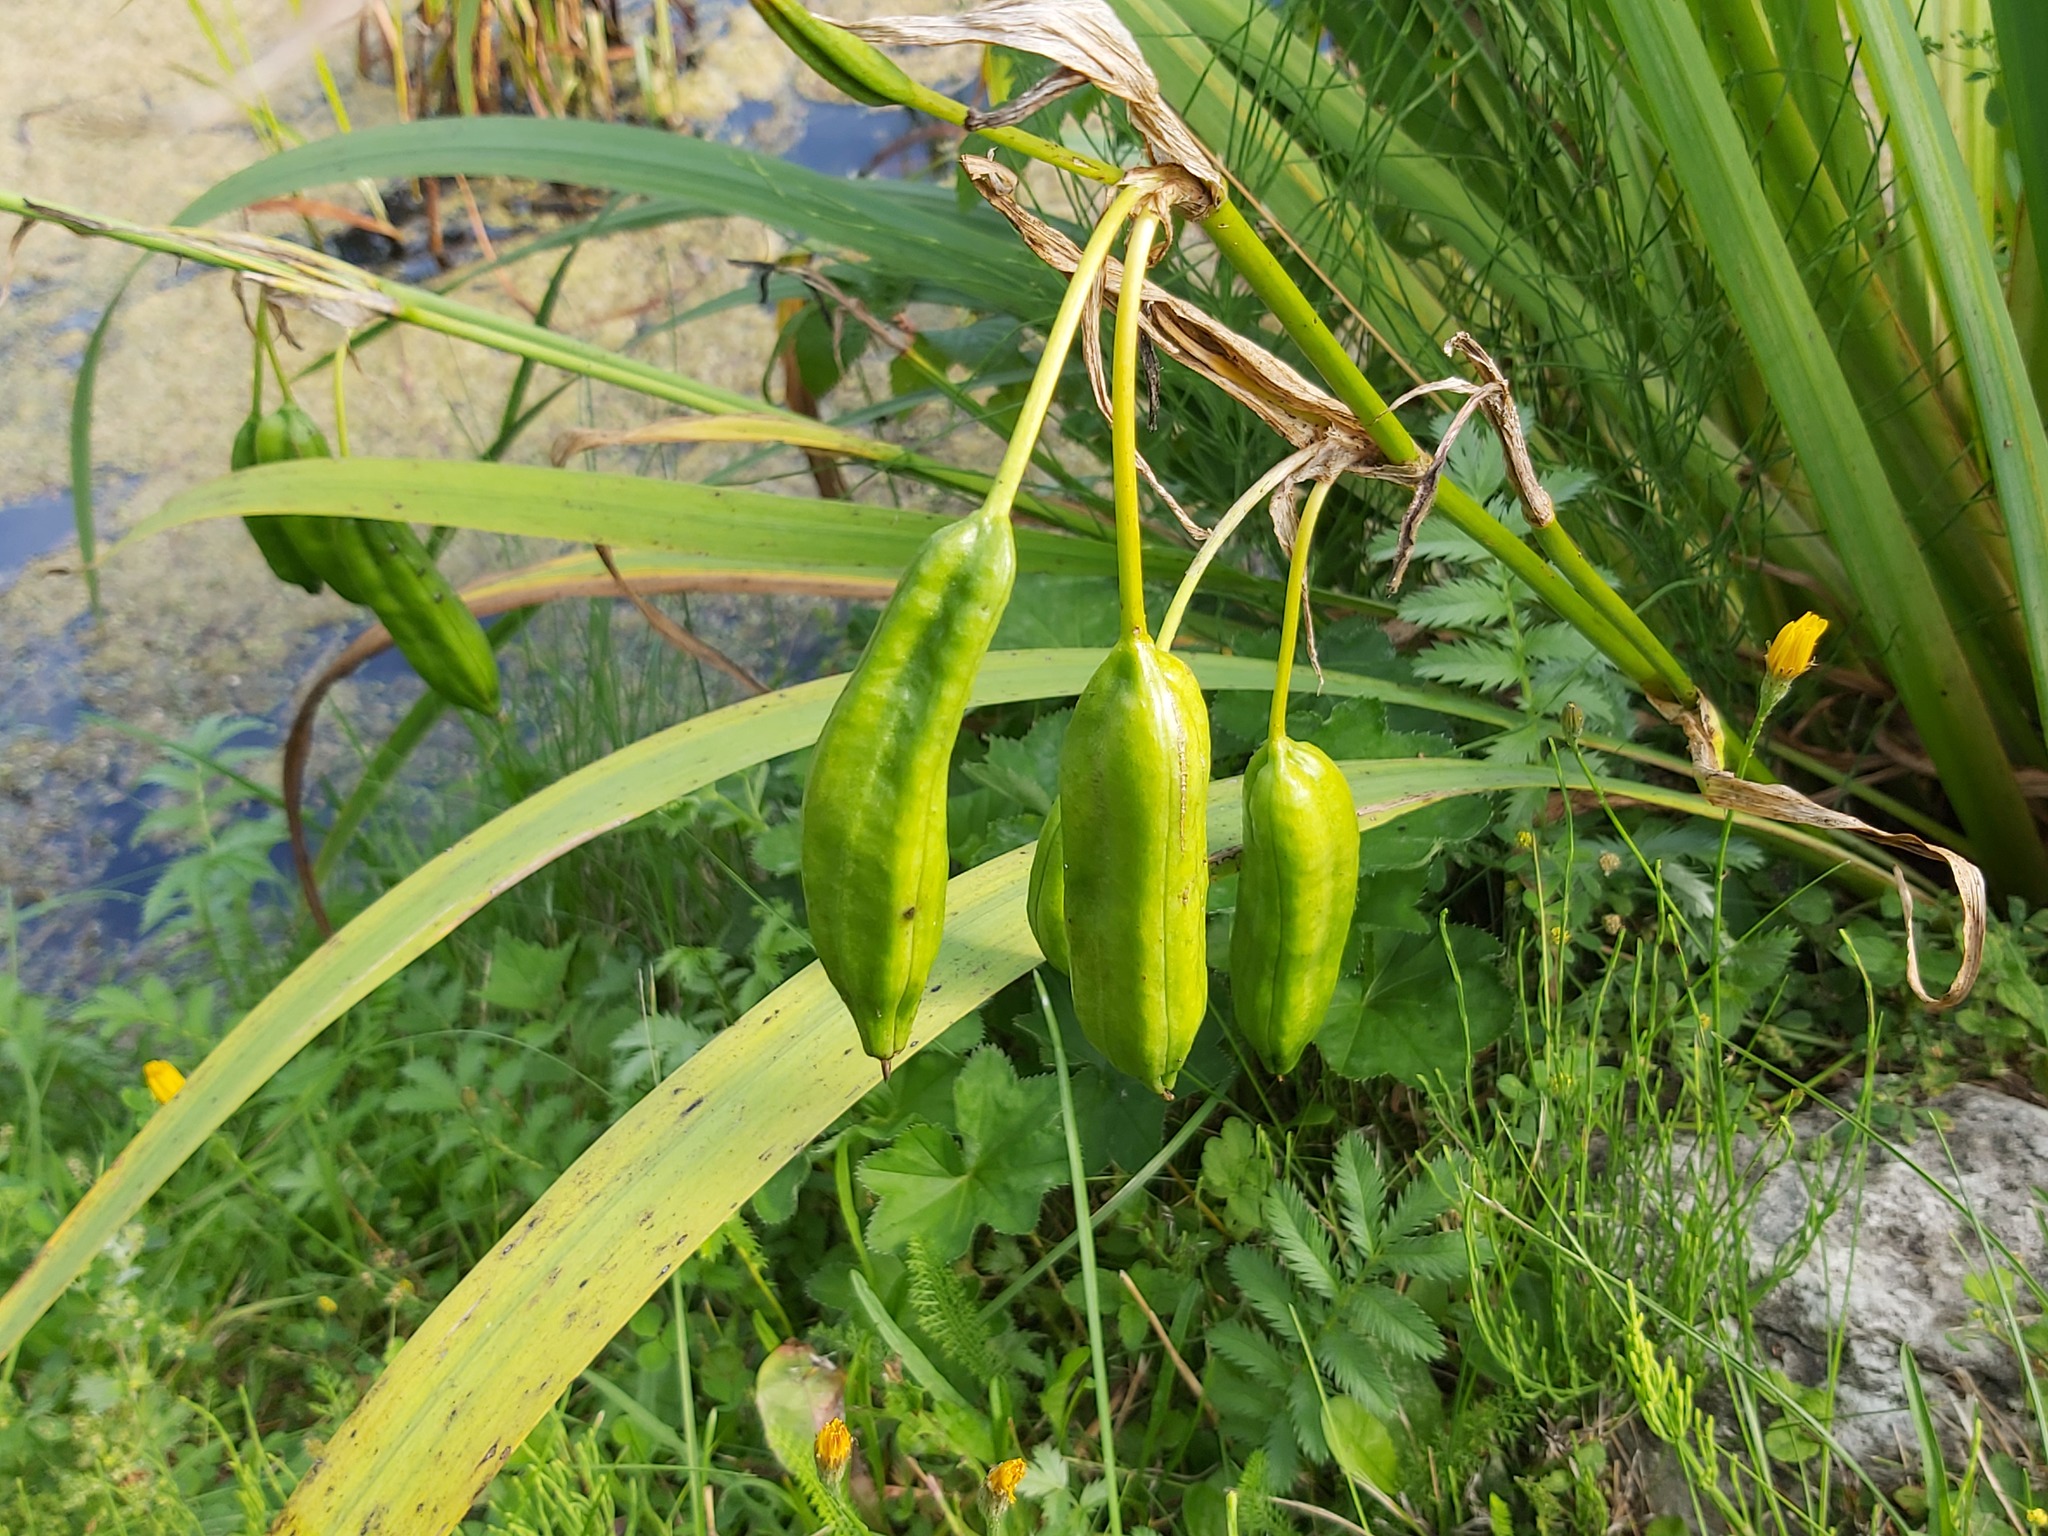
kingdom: Plantae
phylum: Tracheophyta
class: Liliopsida
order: Asparagales
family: Iridaceae
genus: Iris
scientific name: Iris pseudacorus
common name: Yellow flag
